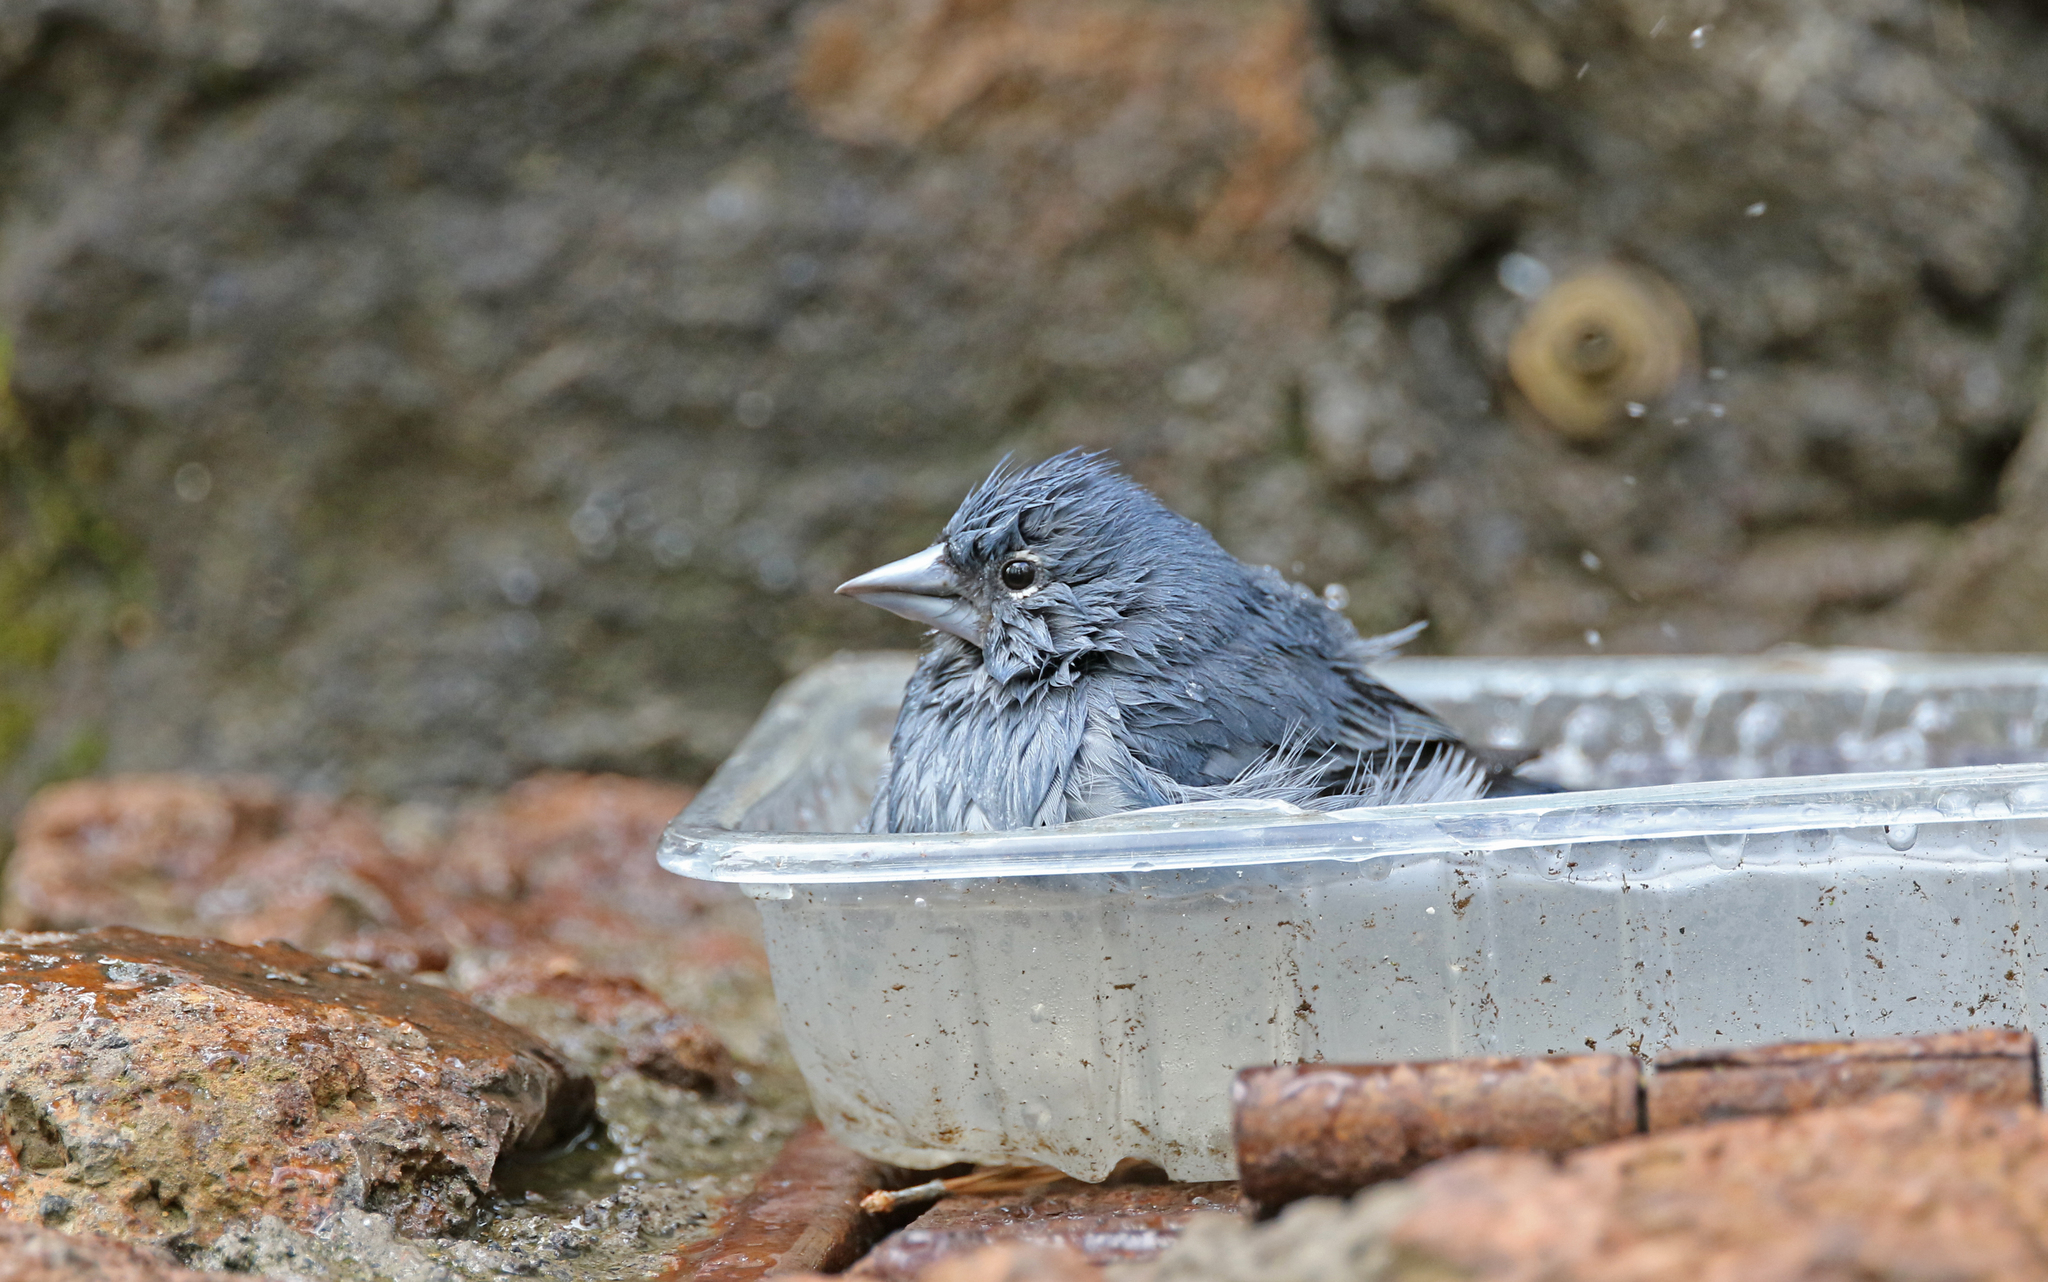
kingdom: Animalia
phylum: Chordata
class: Aves
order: Passeriformes
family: Fringillidae
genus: Fringilla
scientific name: Fringilla teydea
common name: Blue chaffinch
